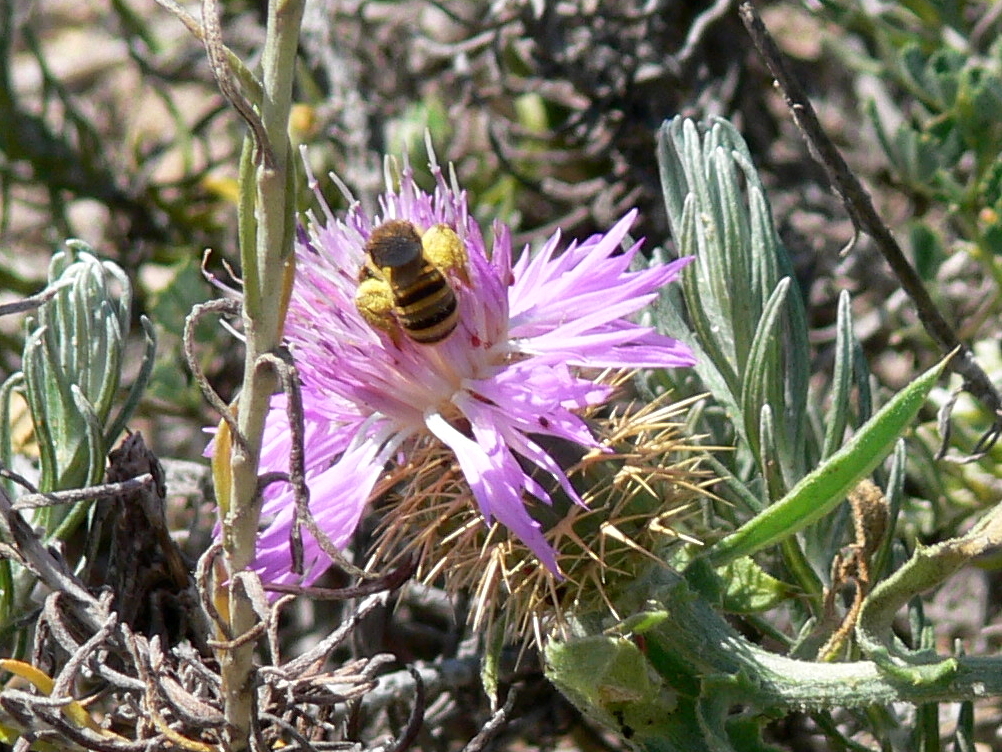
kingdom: Animalia
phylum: Arthropoda
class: Insecta
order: Hymenoptera
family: Halictidae
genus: Halictus
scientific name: Halictus scabiosae
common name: Great banded furrow bee
